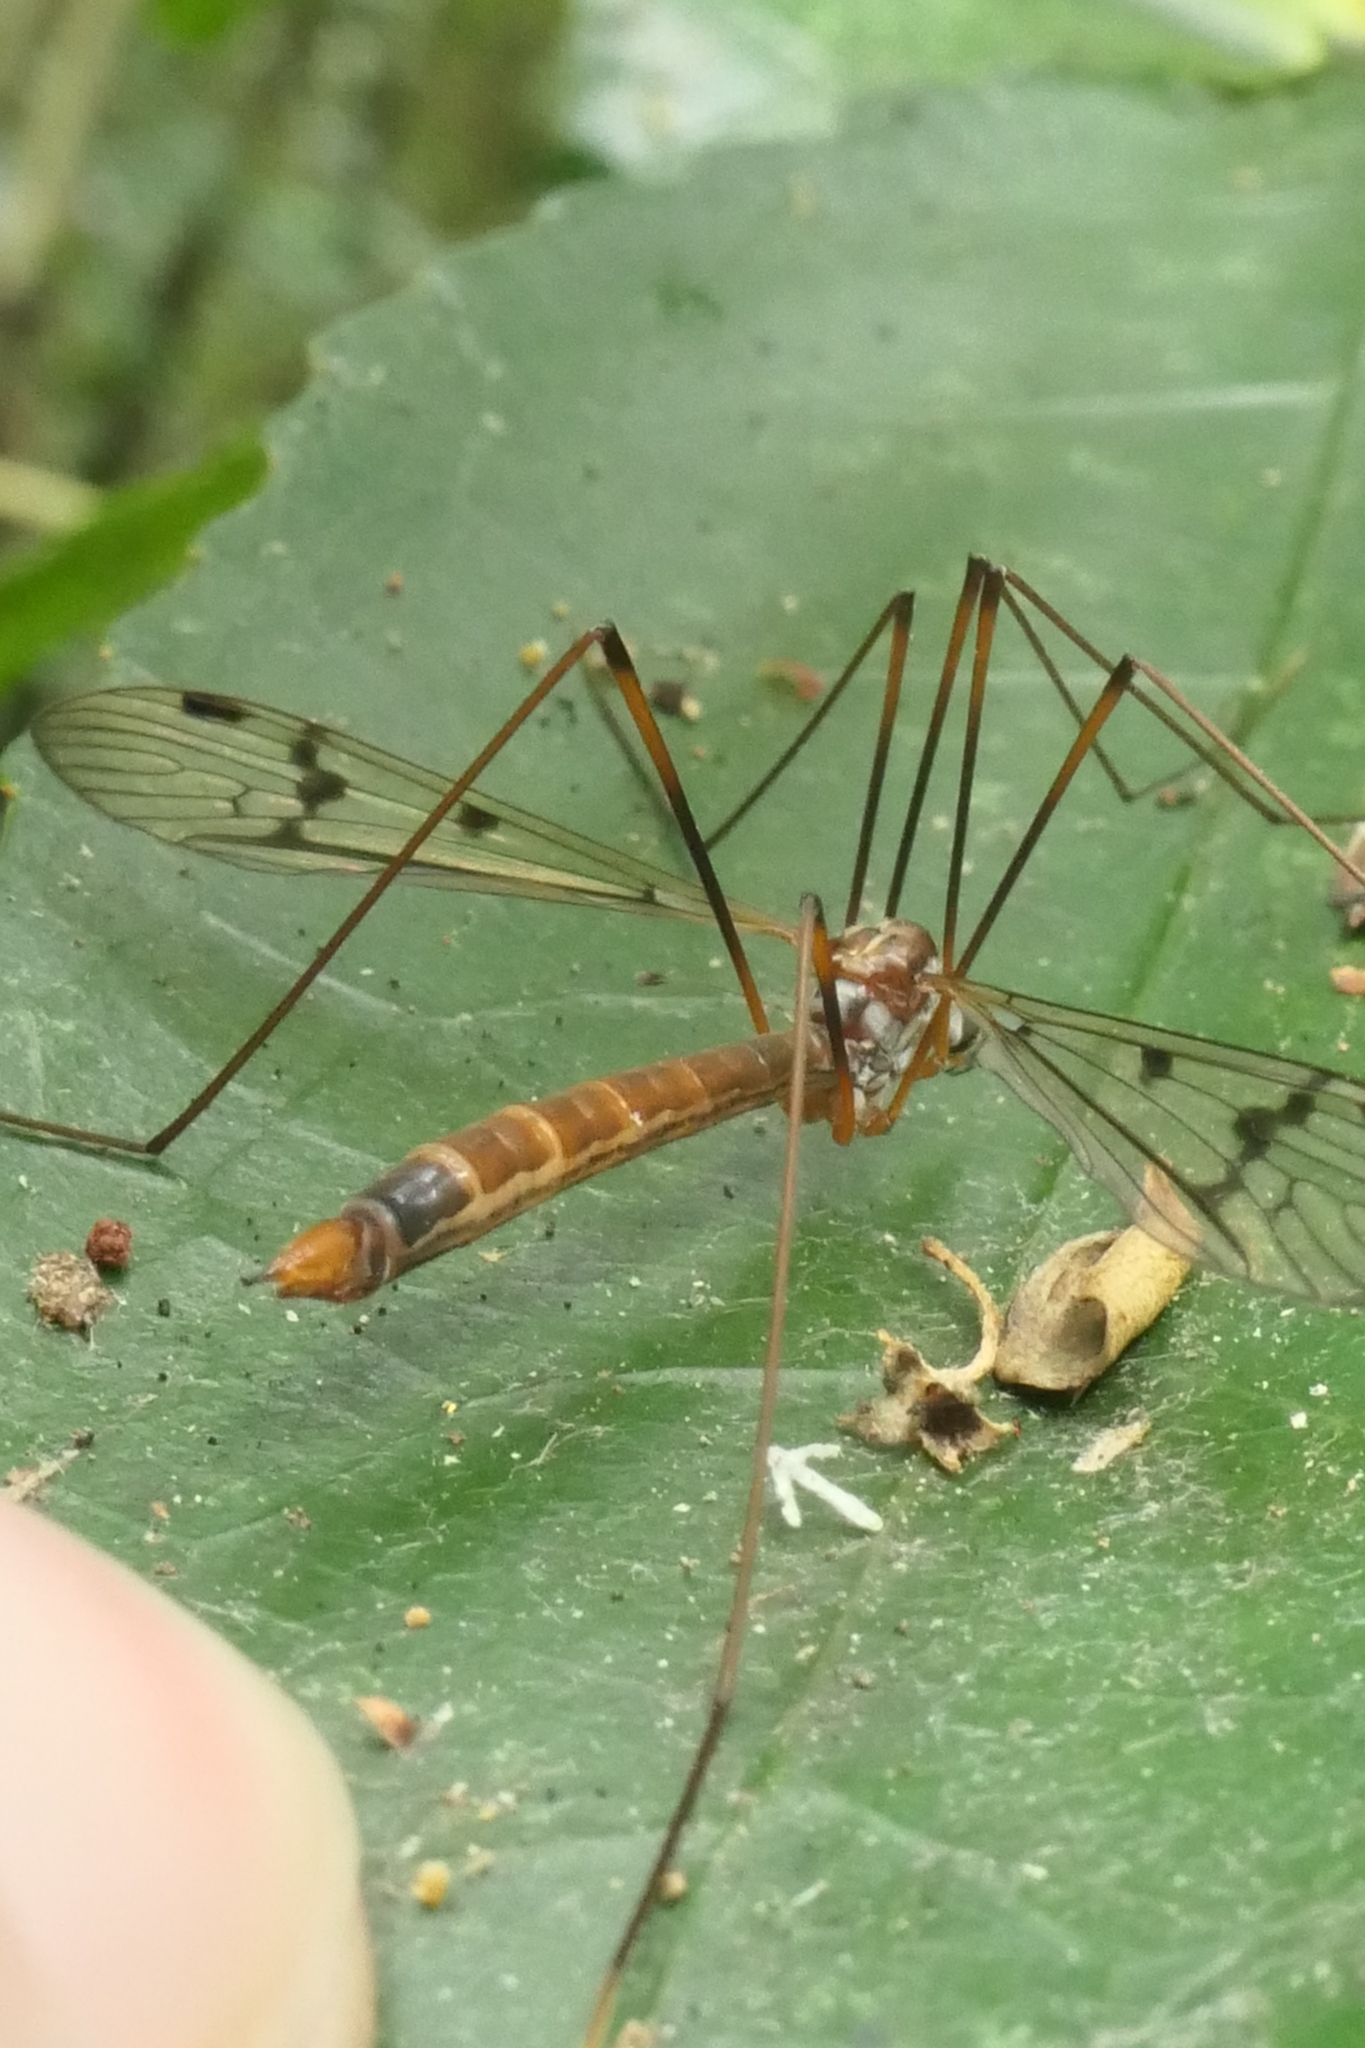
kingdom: Animalia
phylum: Arthropoda
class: Insecta
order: Diptera
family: Limoniidae
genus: Limnophilella
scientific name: Limnophilella serotina
